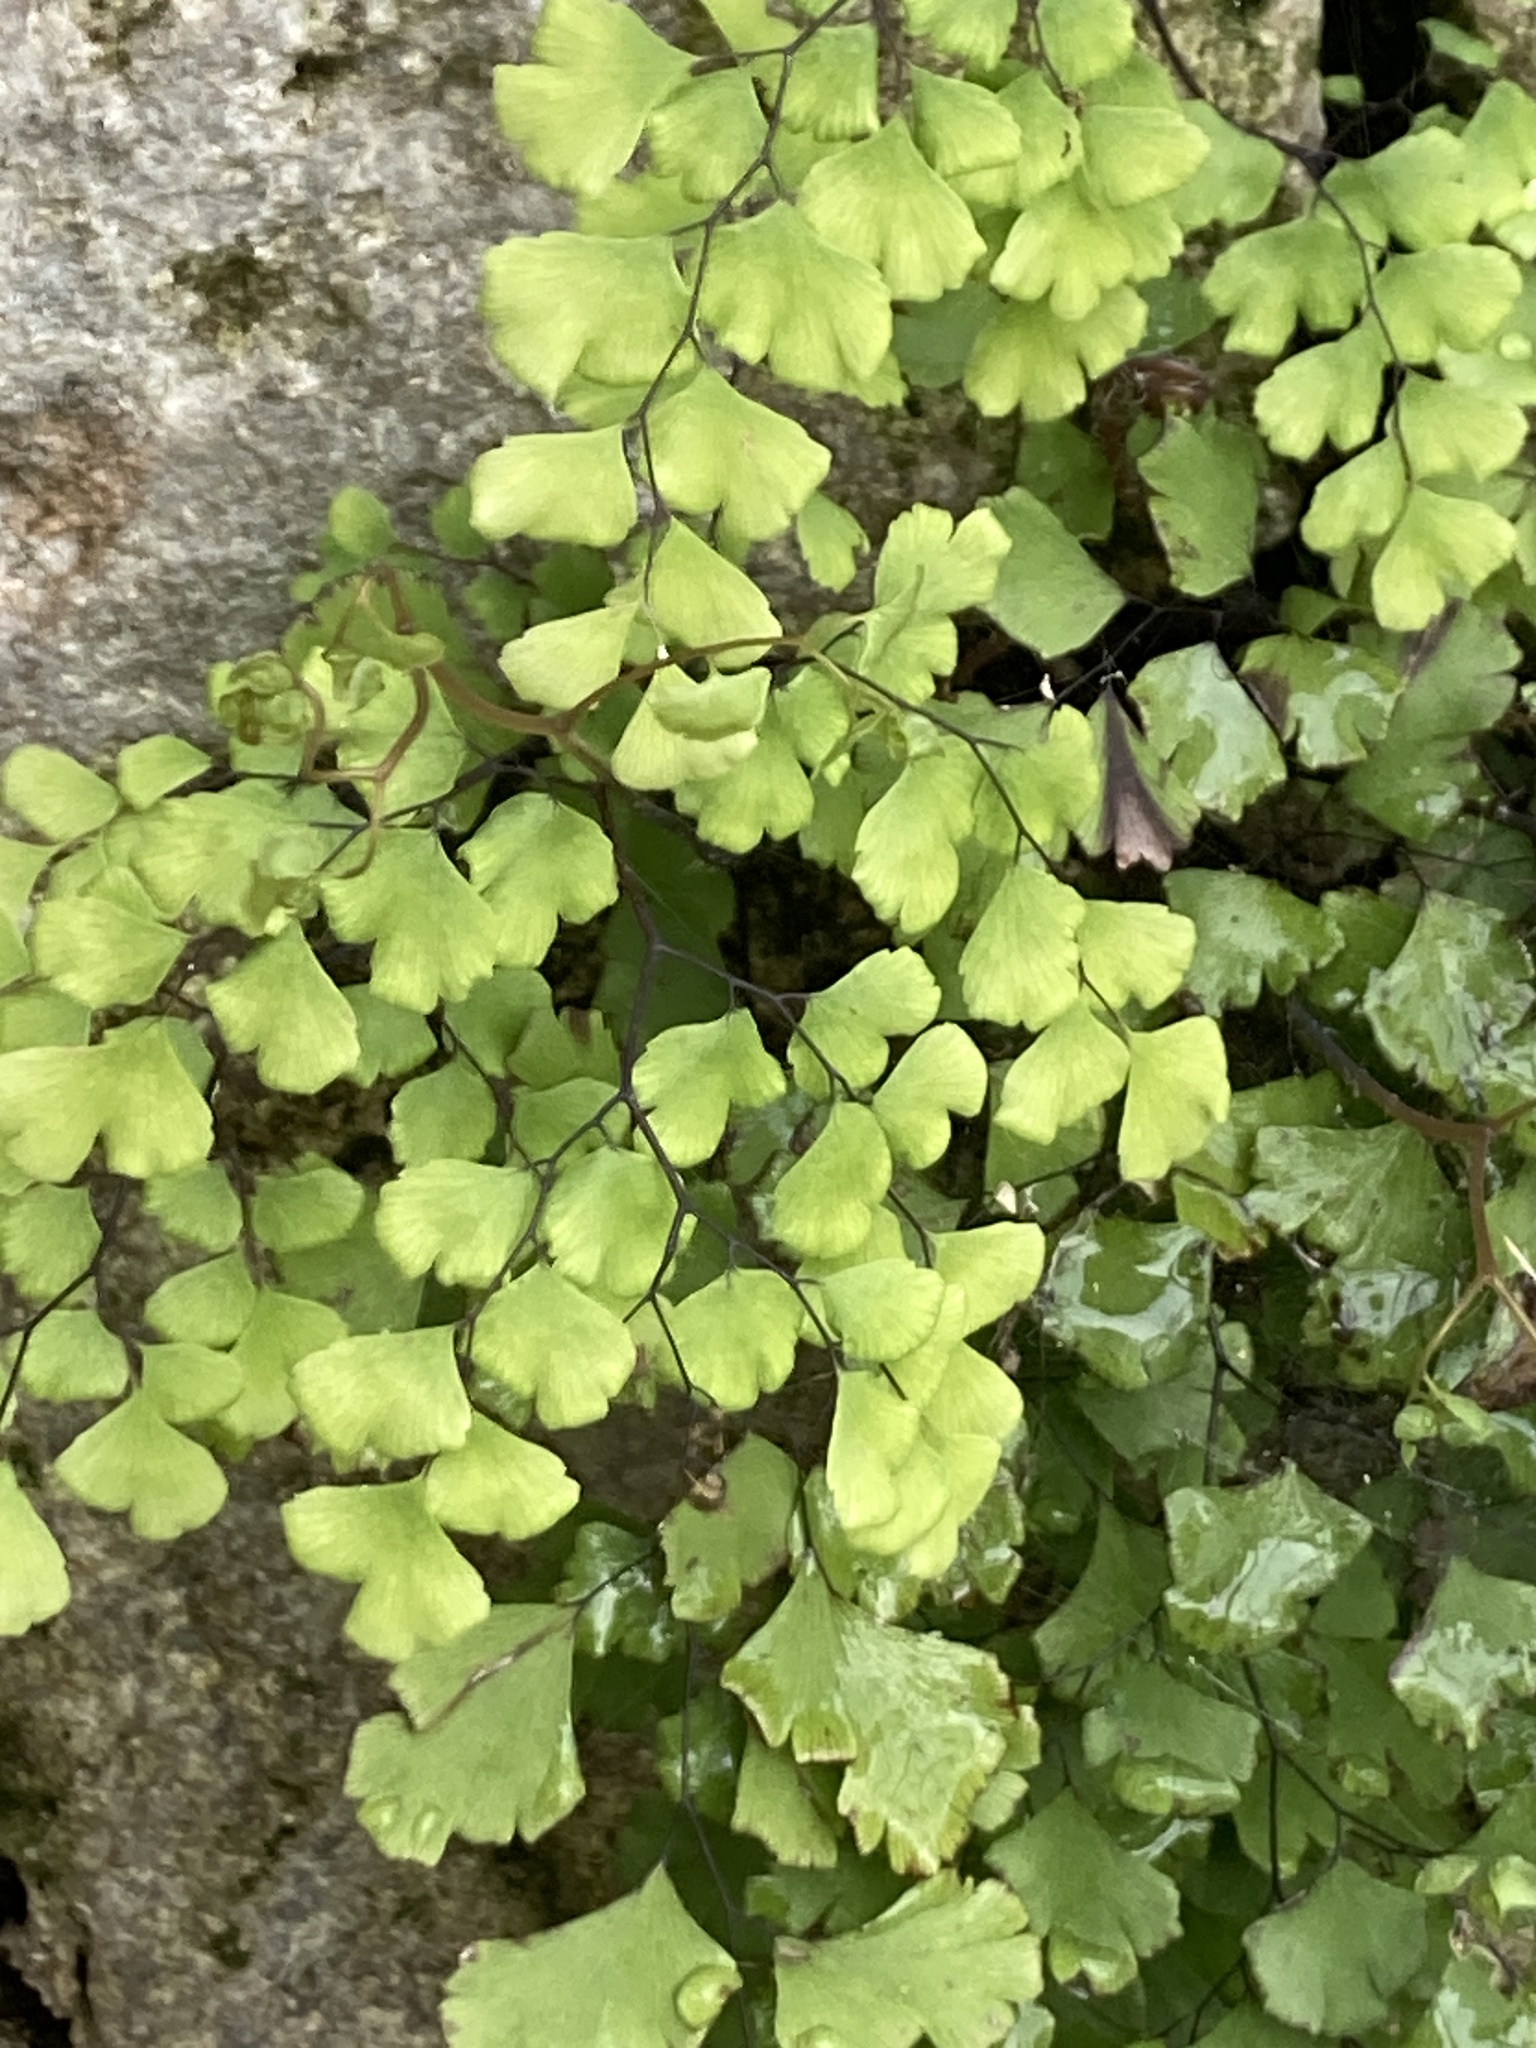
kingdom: Plantae
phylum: Tracheophyta
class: Polypodiopsida
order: Polypodiales
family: Pteridaceae
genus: Adiantum
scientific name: Adiantum capillus-veneris
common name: Maidenhair fern
